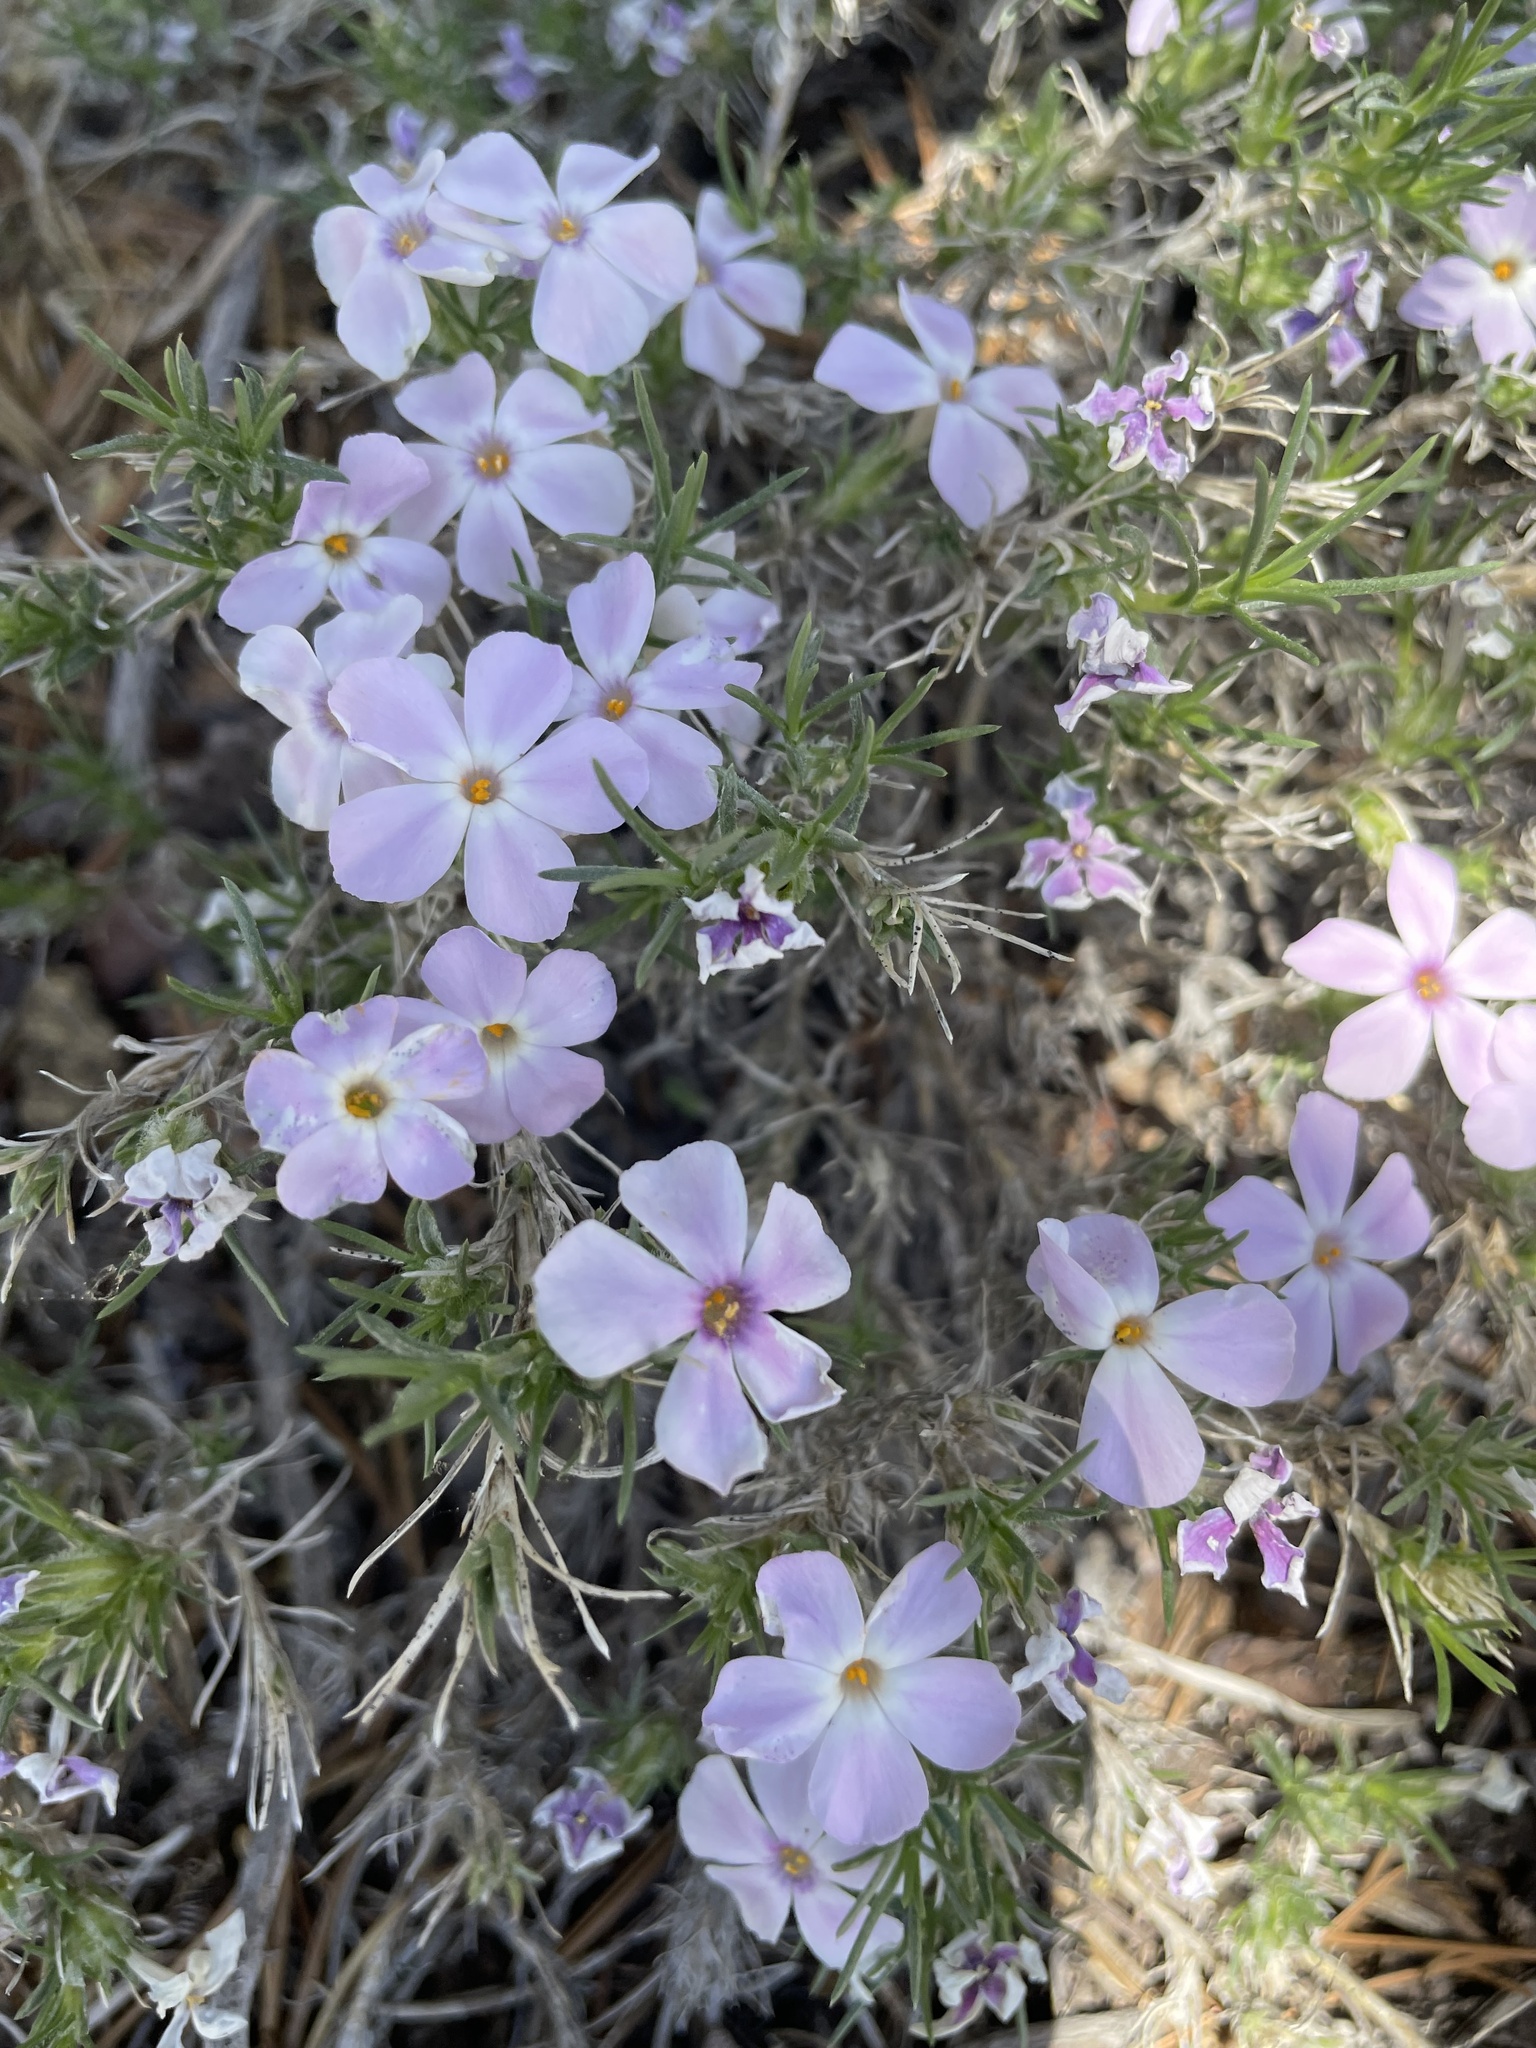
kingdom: Plantae
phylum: Tracheophyta
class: Magnoliopsida
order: Ericales
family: Polemoniaceae
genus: Phlox
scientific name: Phlox diffusa
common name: Mat phlox
